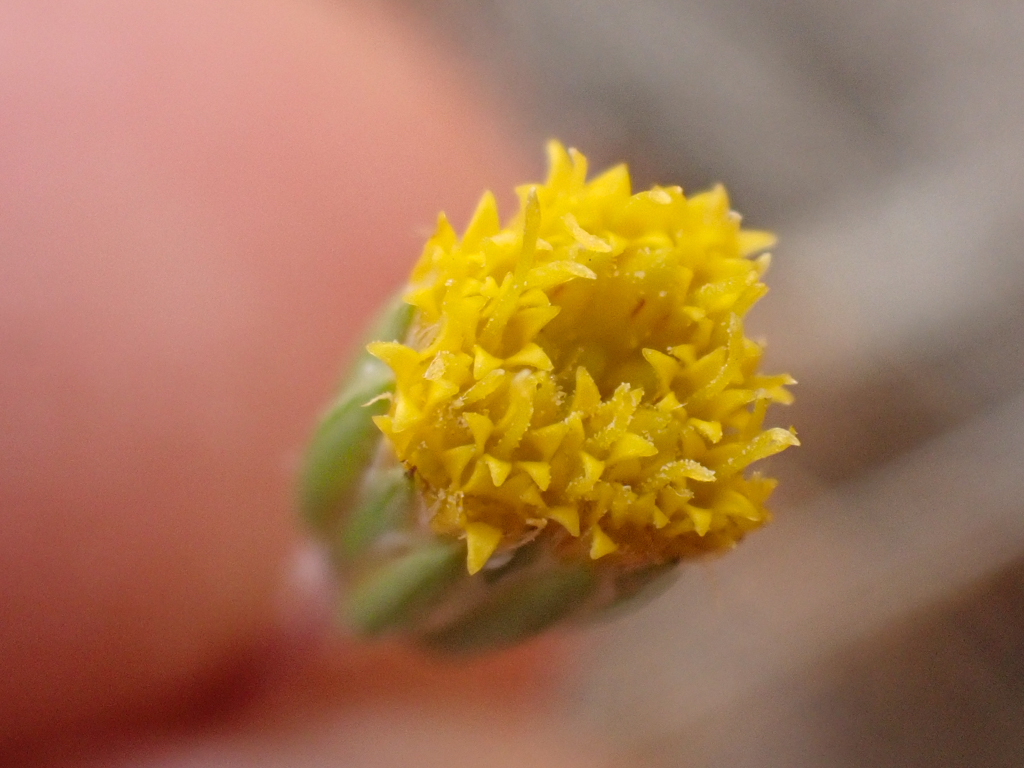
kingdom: Plantae
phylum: Tracheophyta
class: Magnoliopsida
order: Asterales
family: Asteraceae
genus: Pentachaeta
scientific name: Pentachaeta exilis
